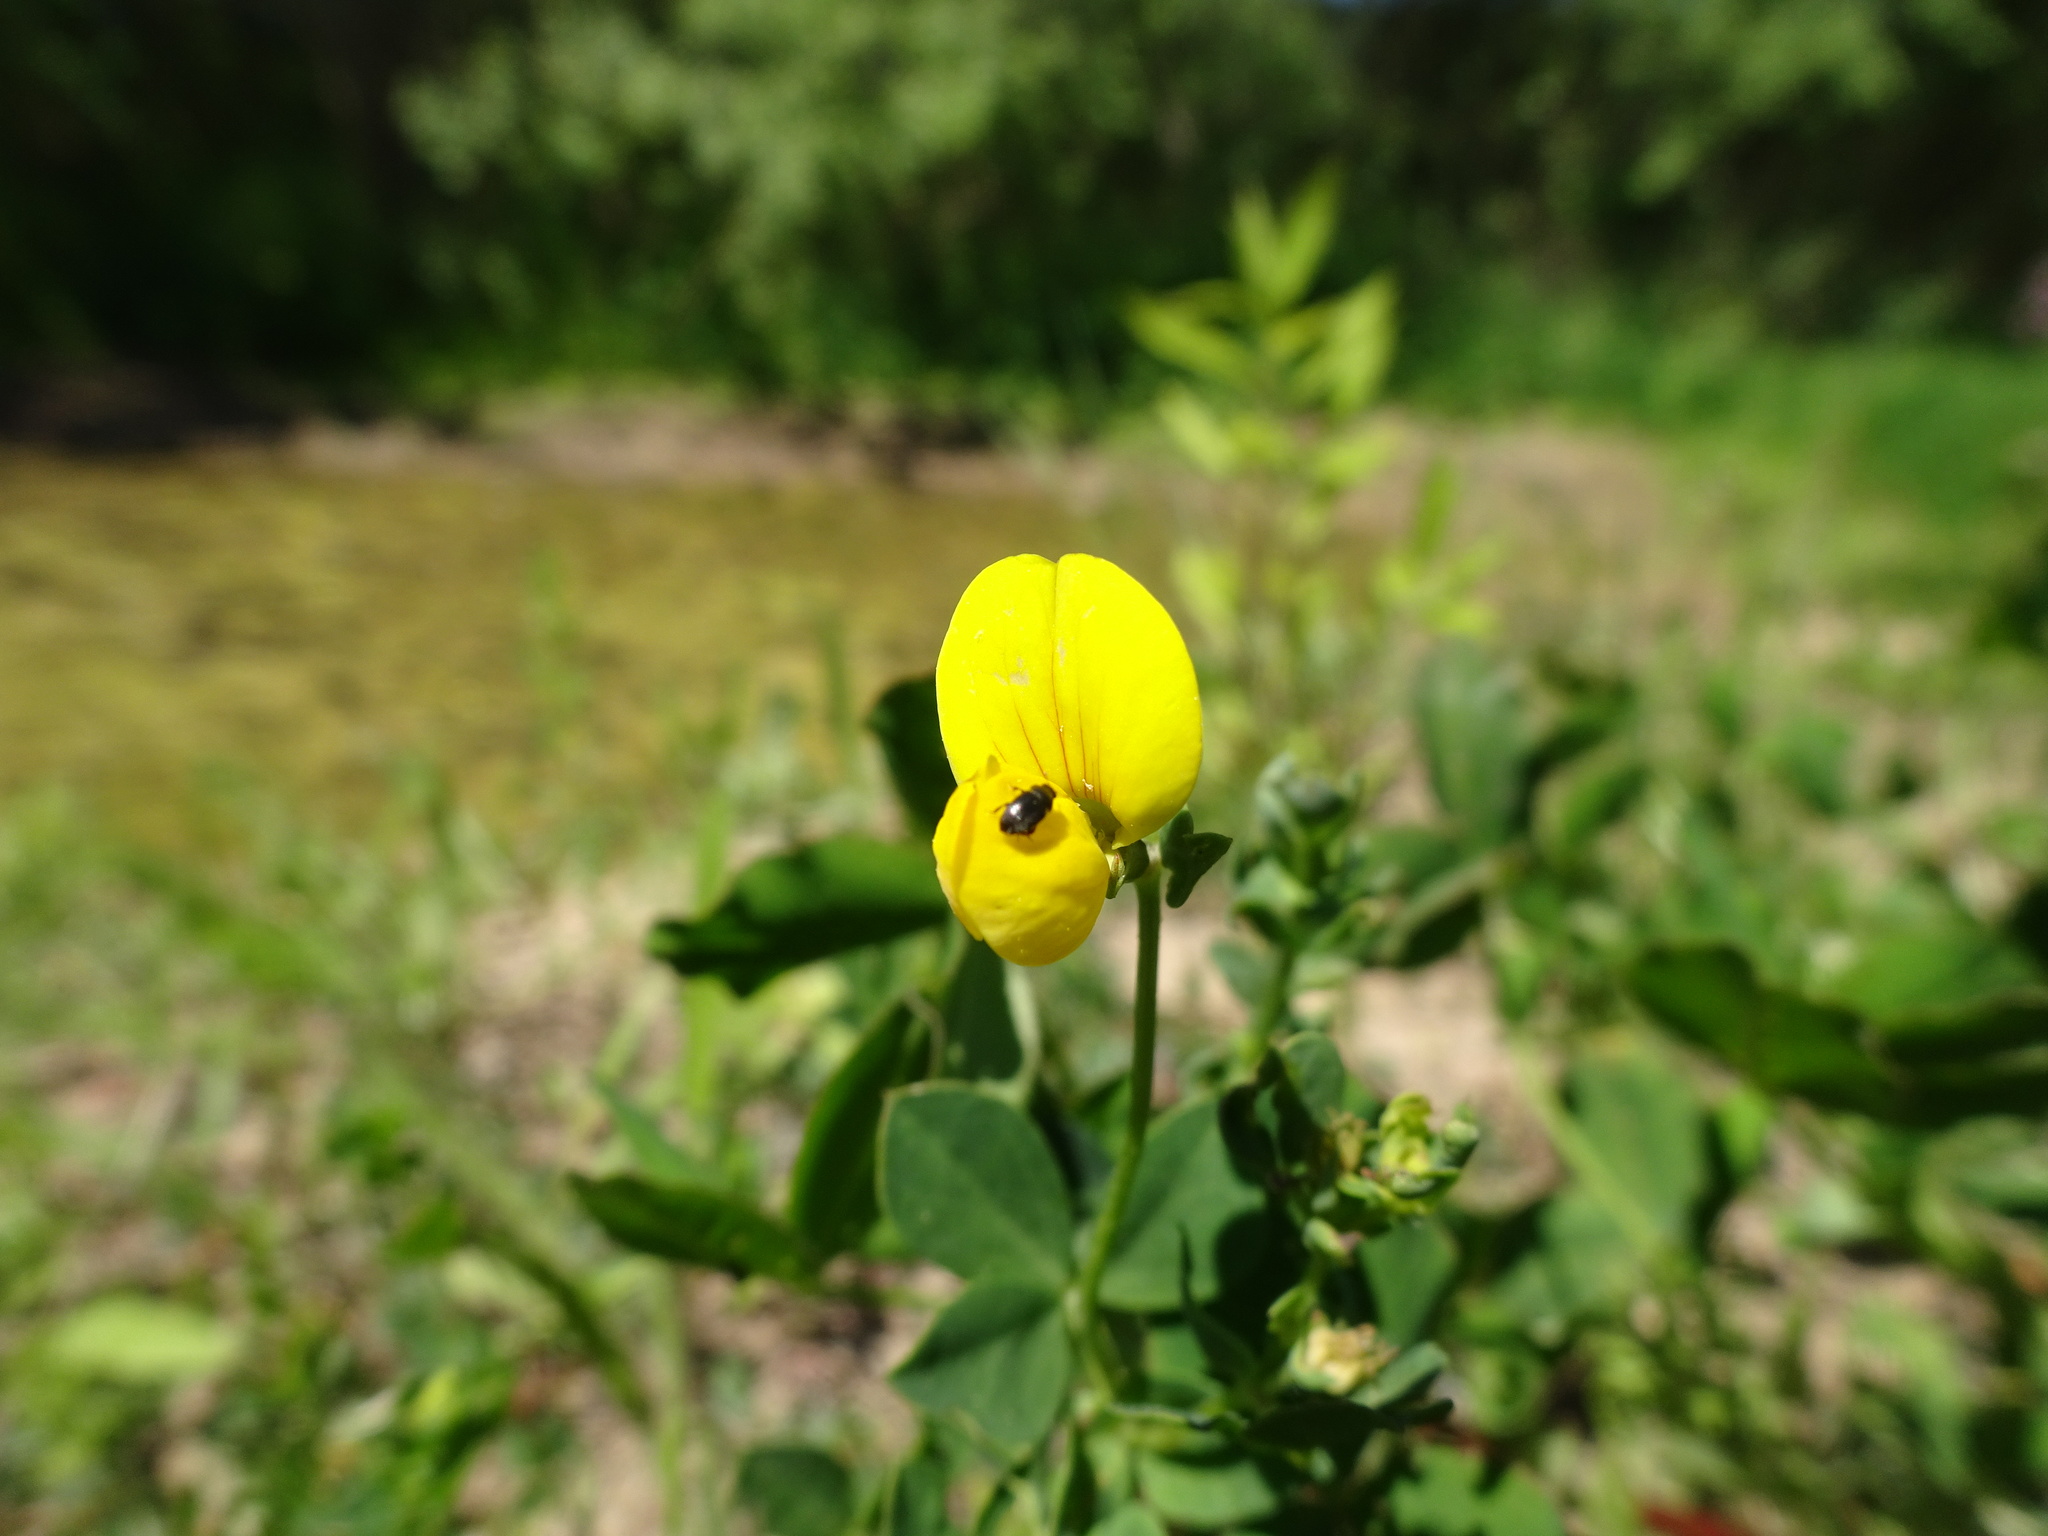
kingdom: Plantae
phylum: Tracheophyta
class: Magnoliopsida
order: Fabales
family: Fabaceae
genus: Lotus
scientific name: Lotus corniculatus
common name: Common bird's-foot-trefoil
